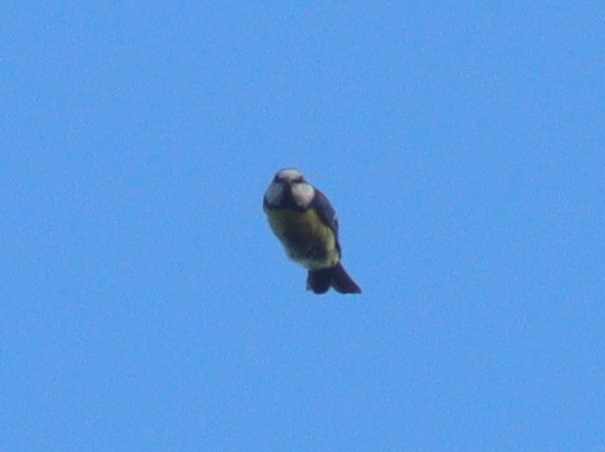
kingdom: Animalia
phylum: Chordata
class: Aves
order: Passeriformes
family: Paridae
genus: Cyanistes
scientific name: Cyanistes caeruleus
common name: Eurasian blue tit
